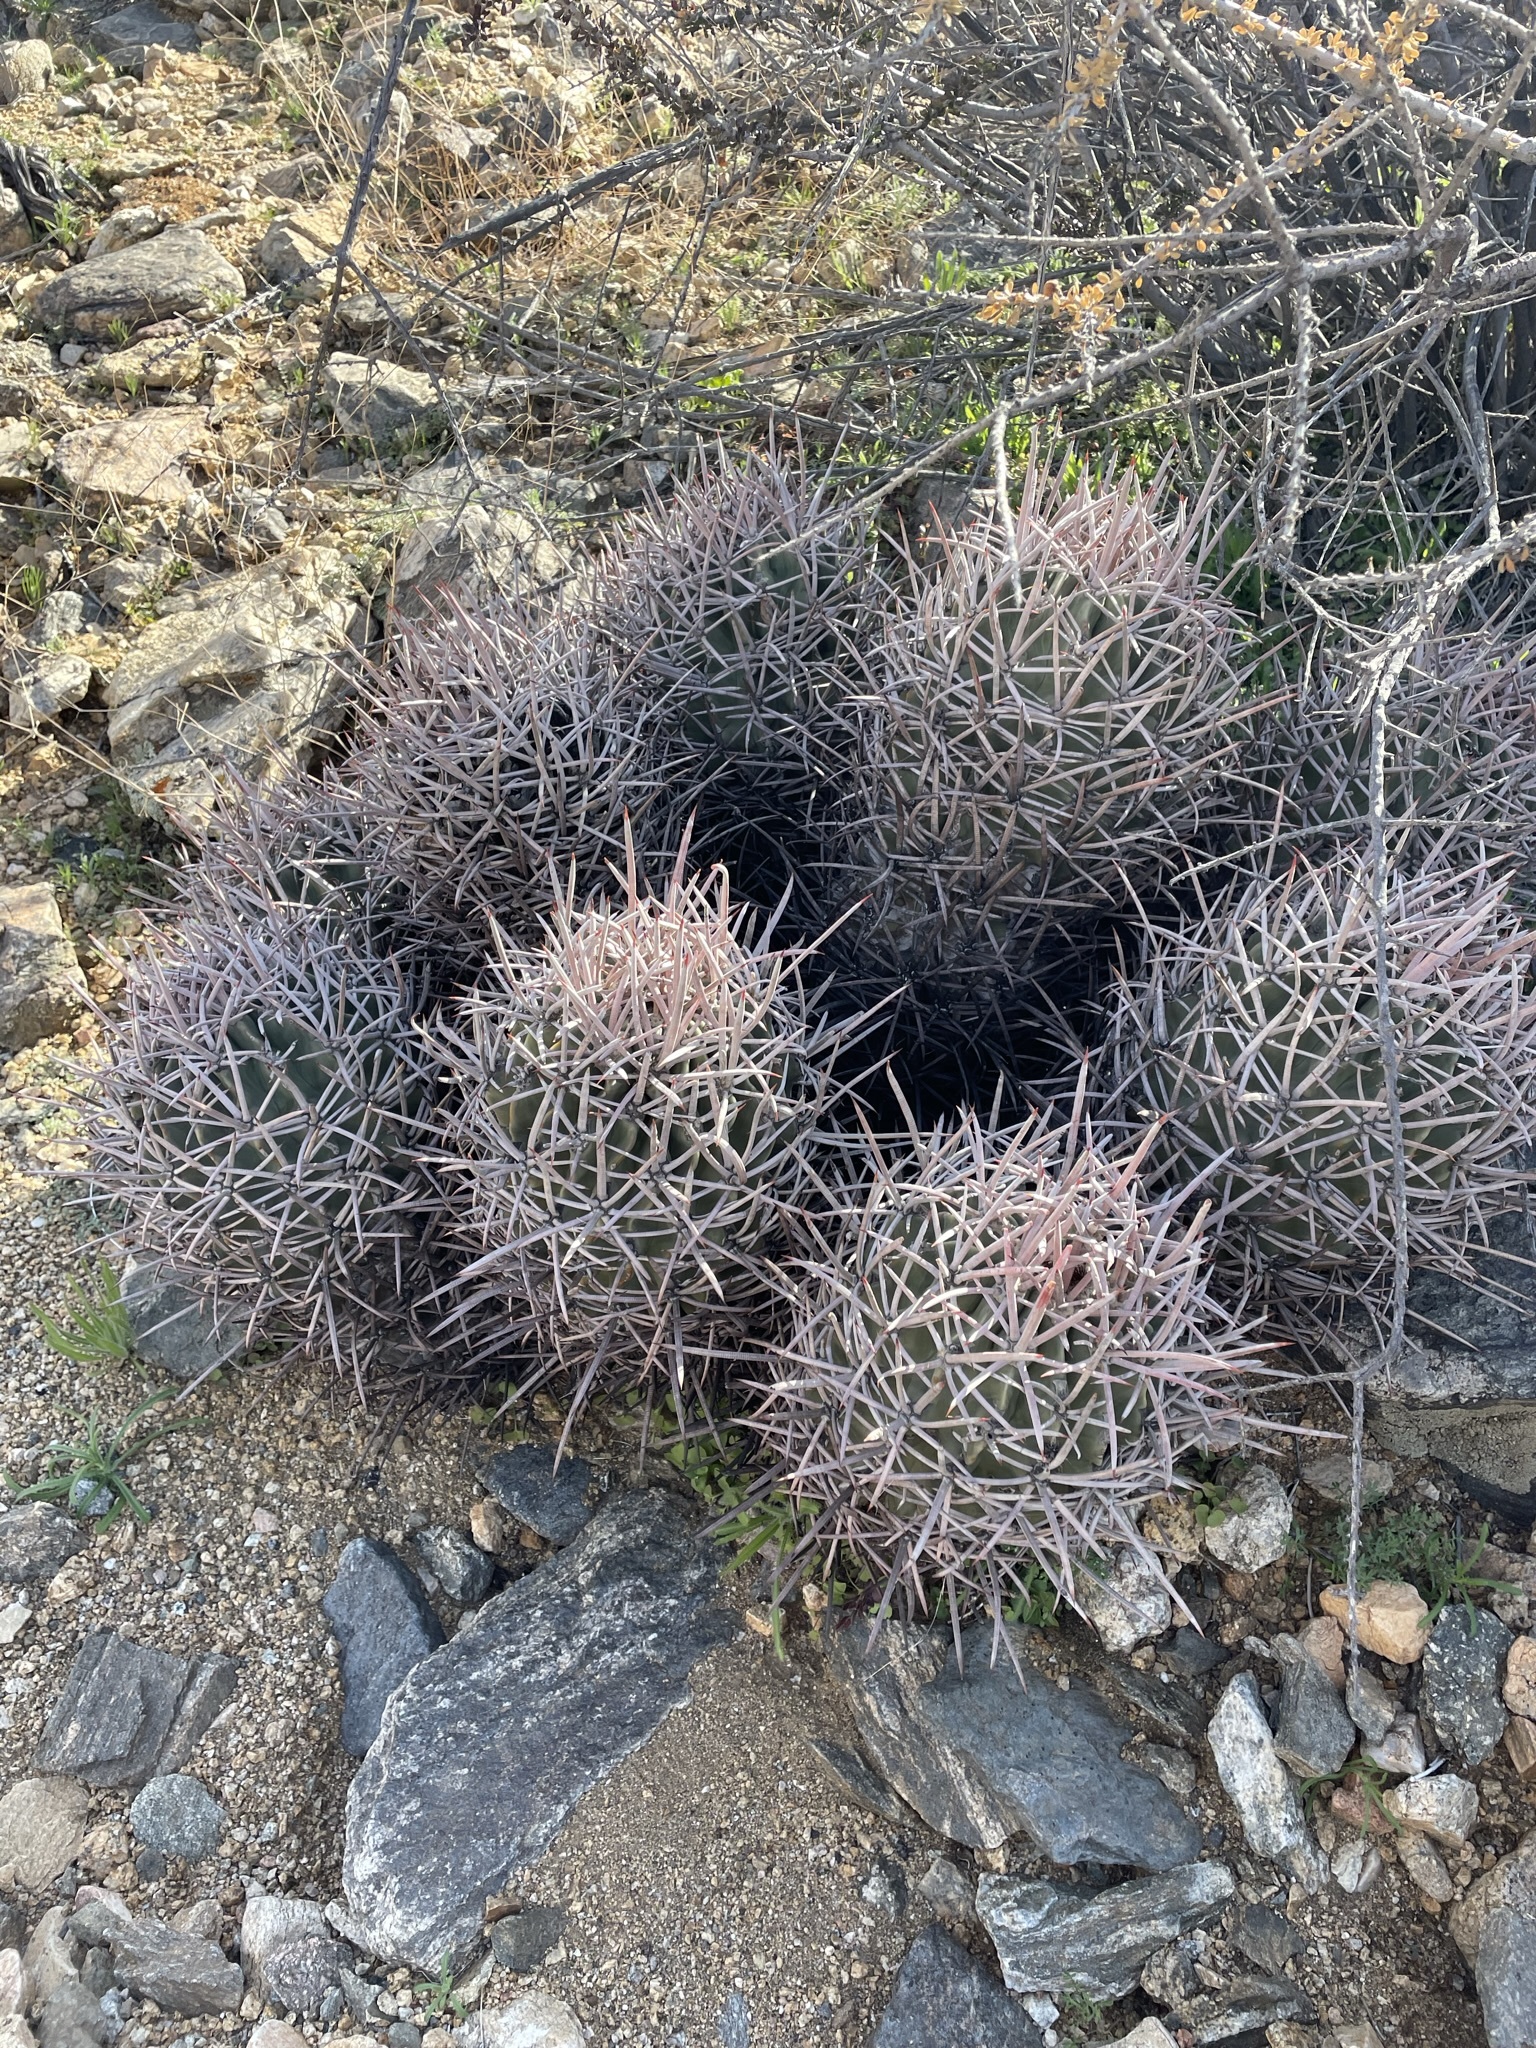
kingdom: Plantae
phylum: Tracheophyta
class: Magnoliopsida
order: Caryophyllales
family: Cactaceae
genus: Echinocactus
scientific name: Echinocactus polycephalus
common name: Cottontop cactus
